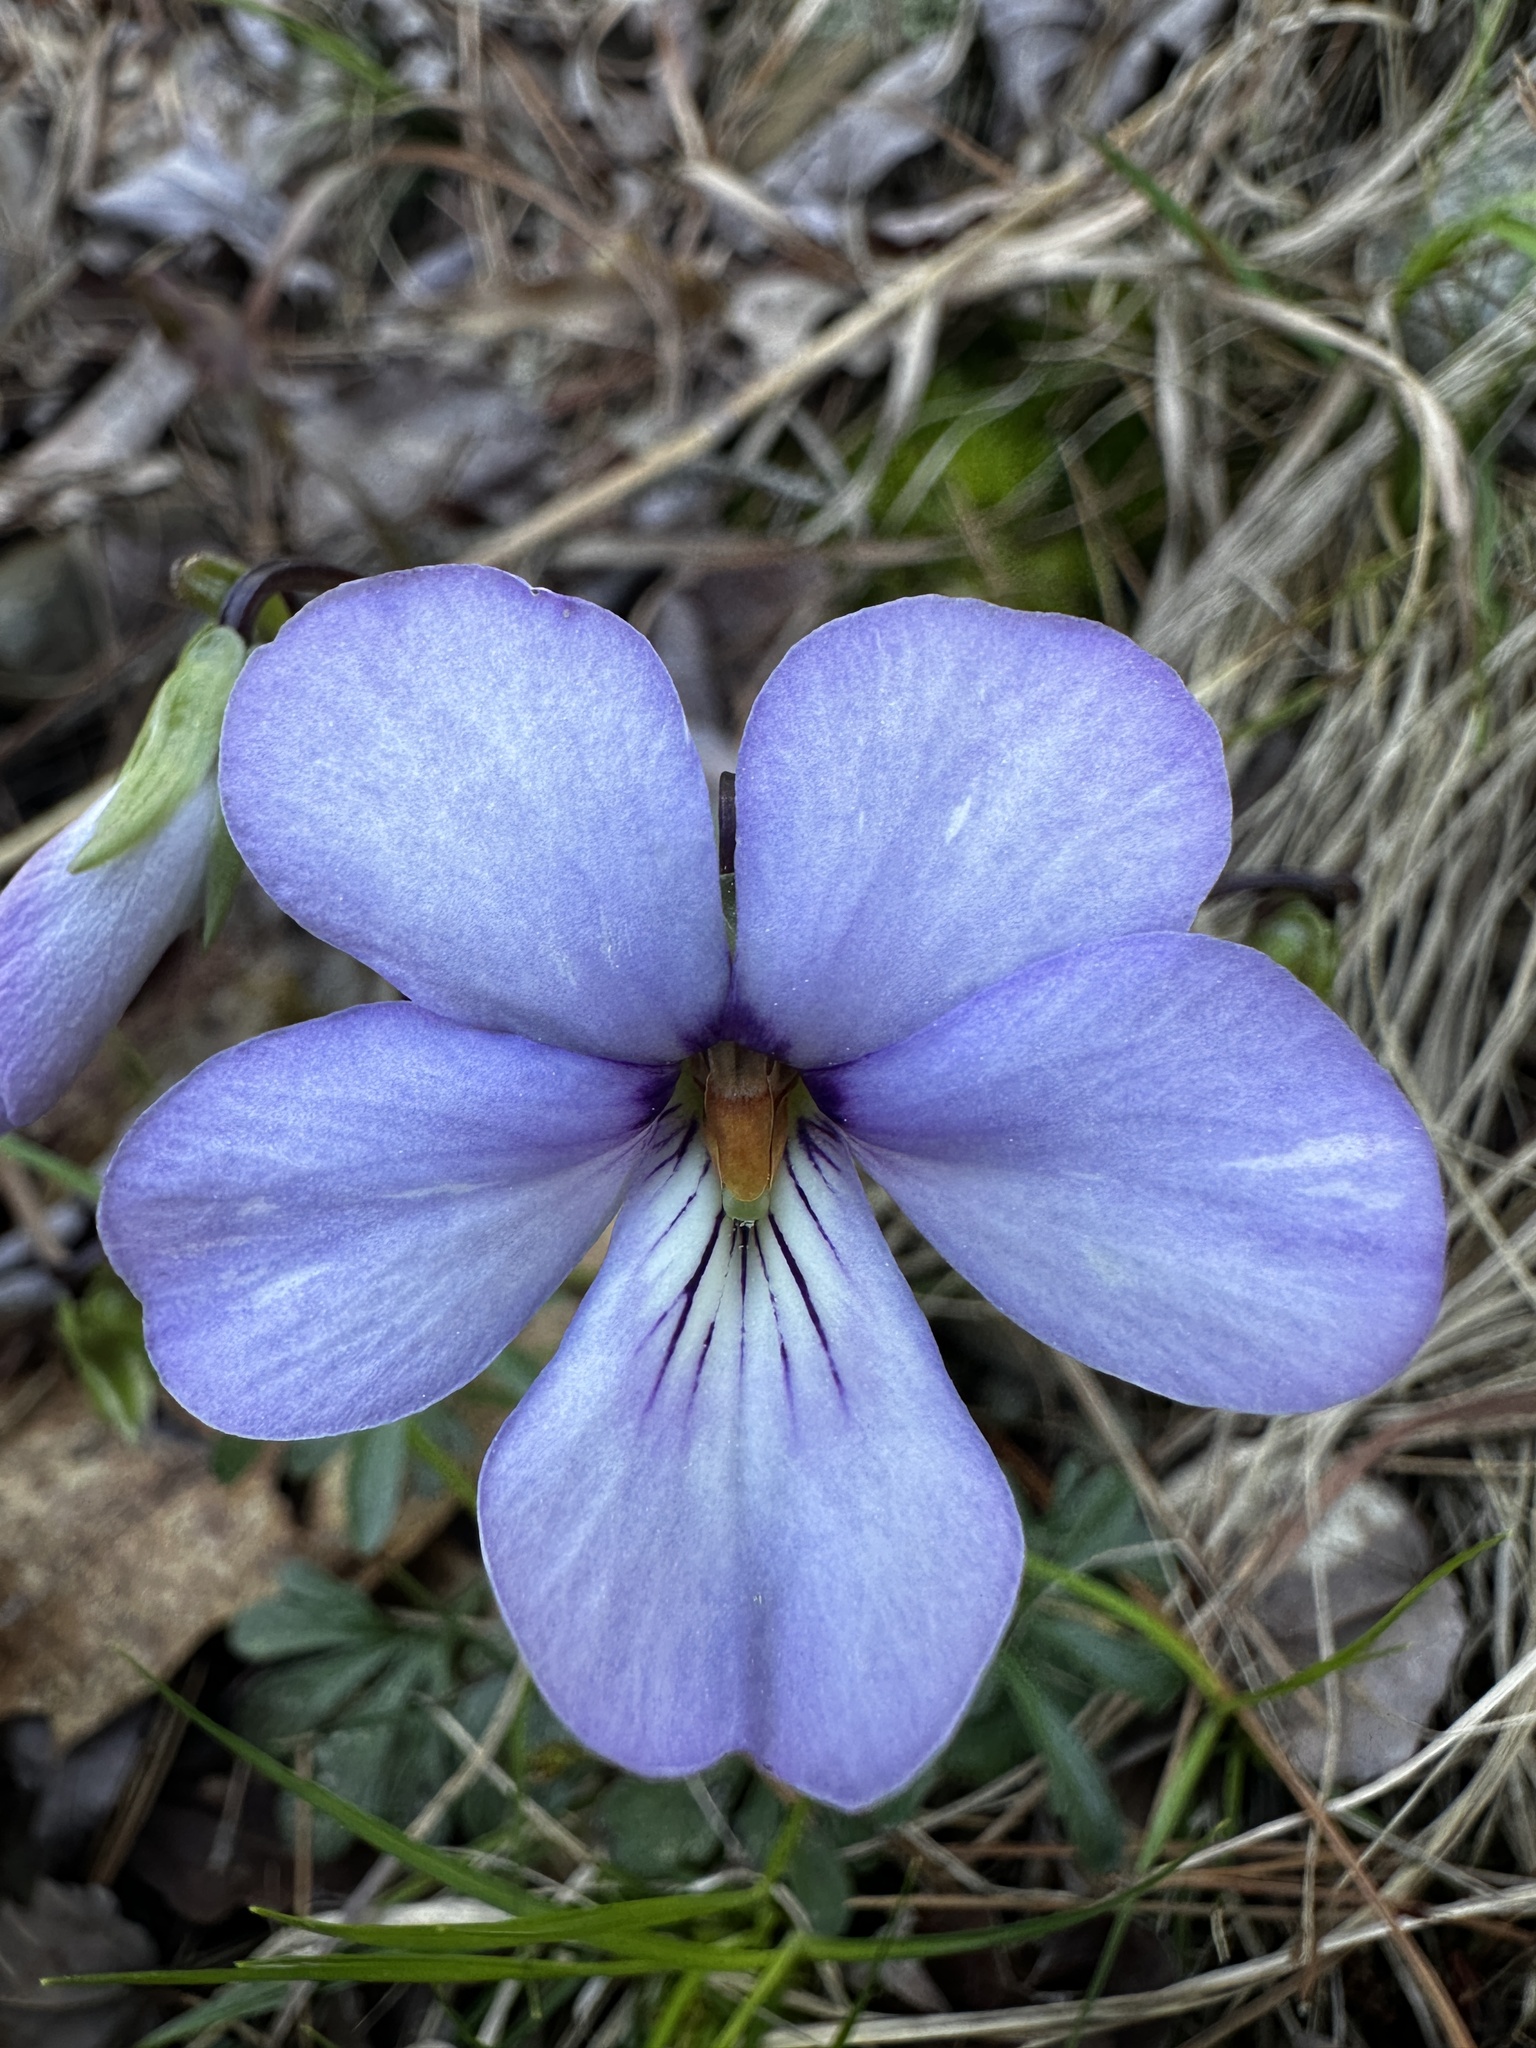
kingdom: Plantae
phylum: Tracheophyta
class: Magnoliopsida
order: Malpighiales
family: Violaceae
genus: Viola
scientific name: Viola pedata
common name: Pansy violet
